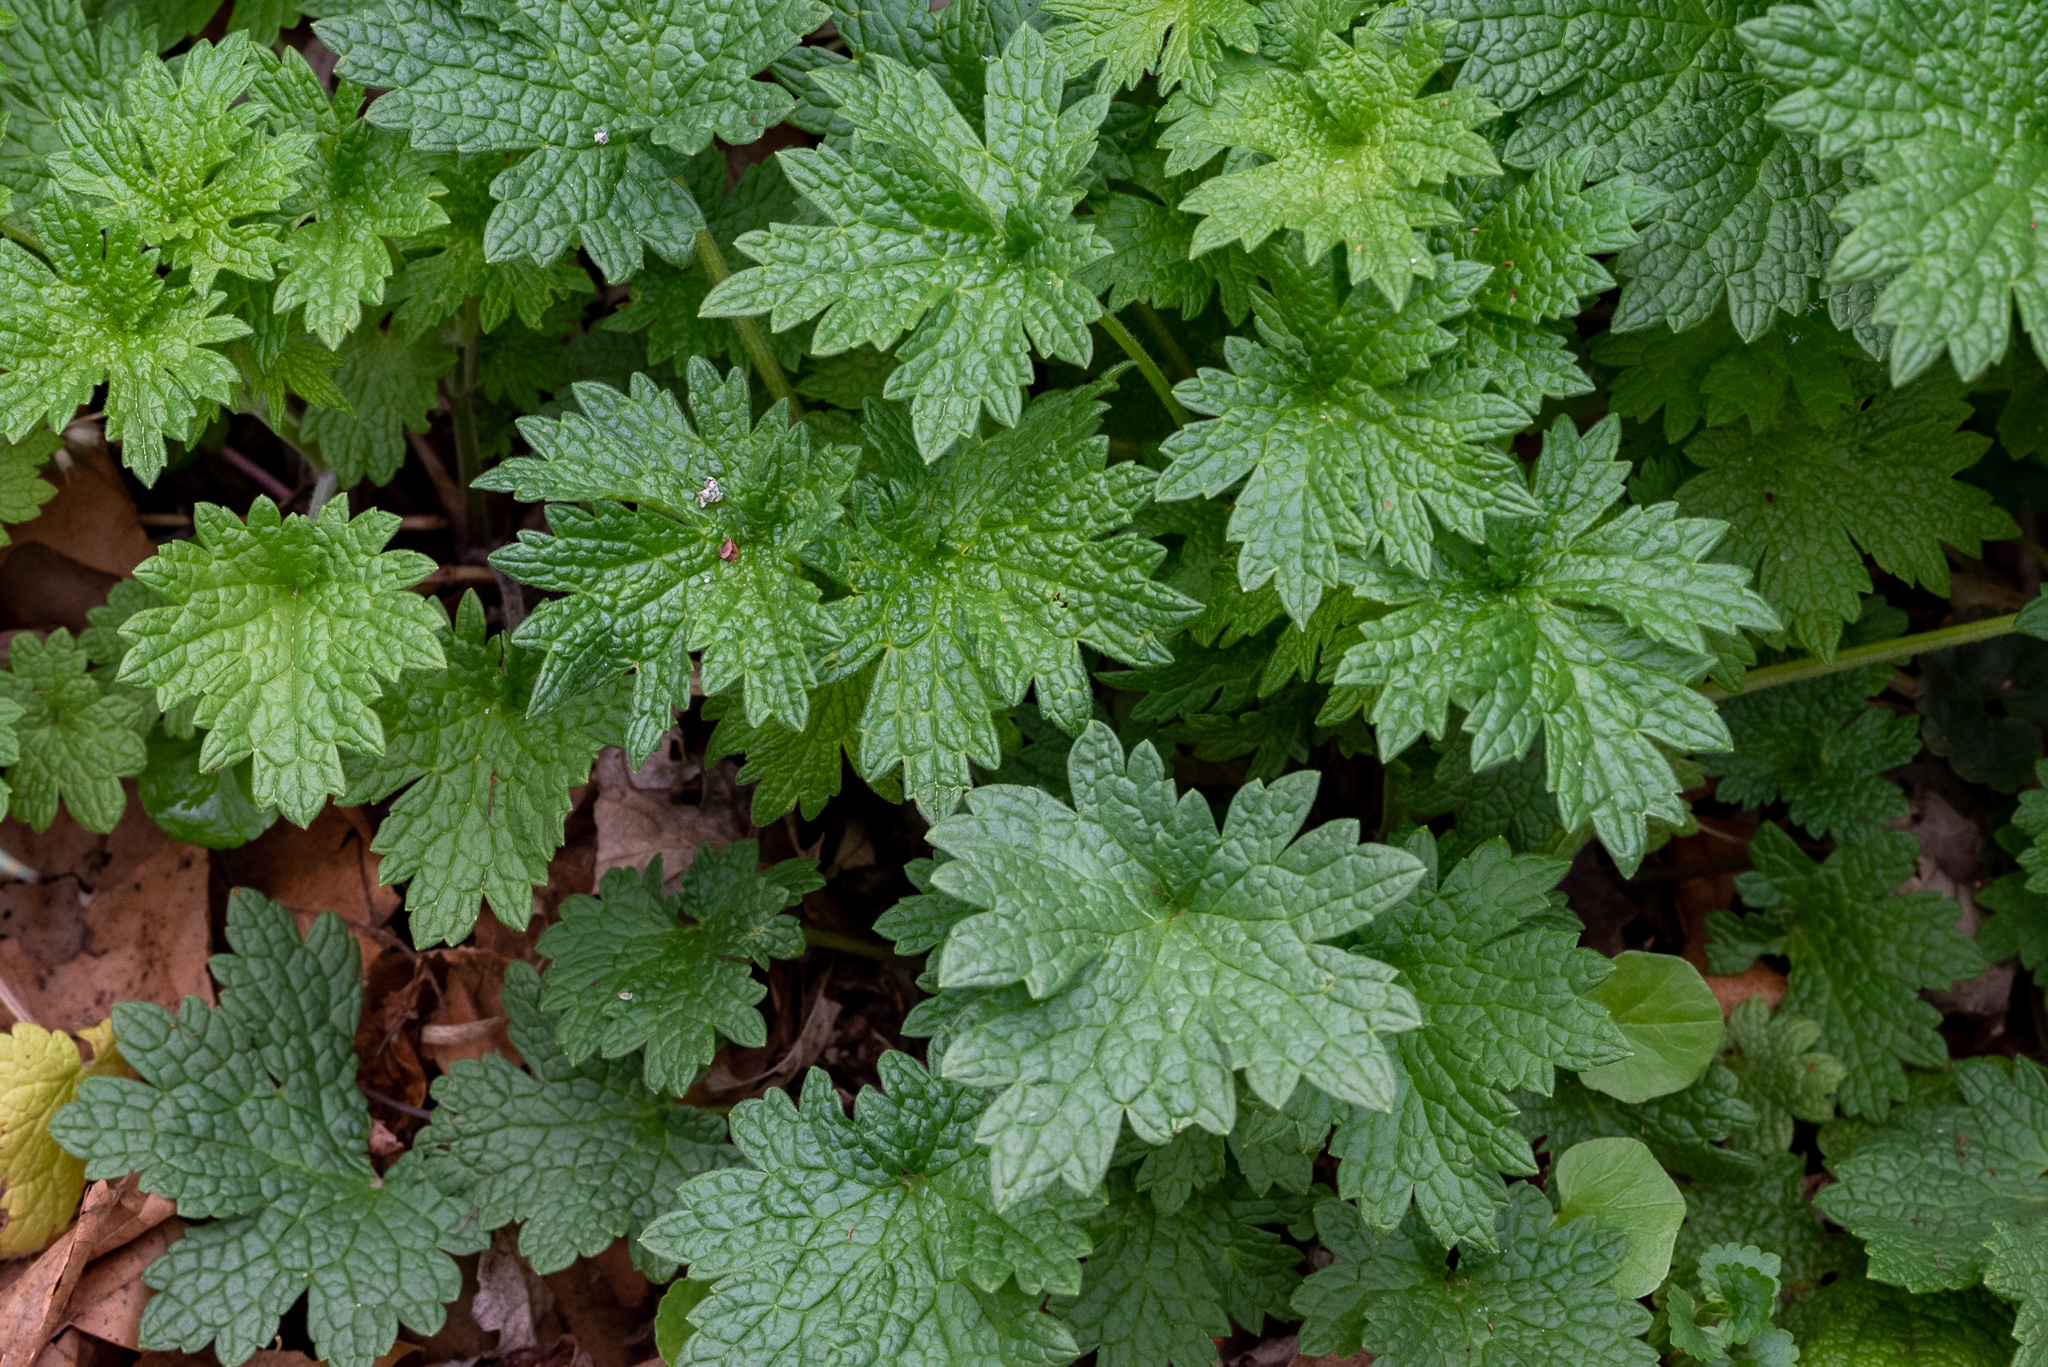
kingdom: Plantae
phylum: Tracheophyta
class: Magnoliopsida
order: Lamiales
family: Lamiaceae
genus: Leonurus
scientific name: Leonurus cardiaca
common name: Motherwort
